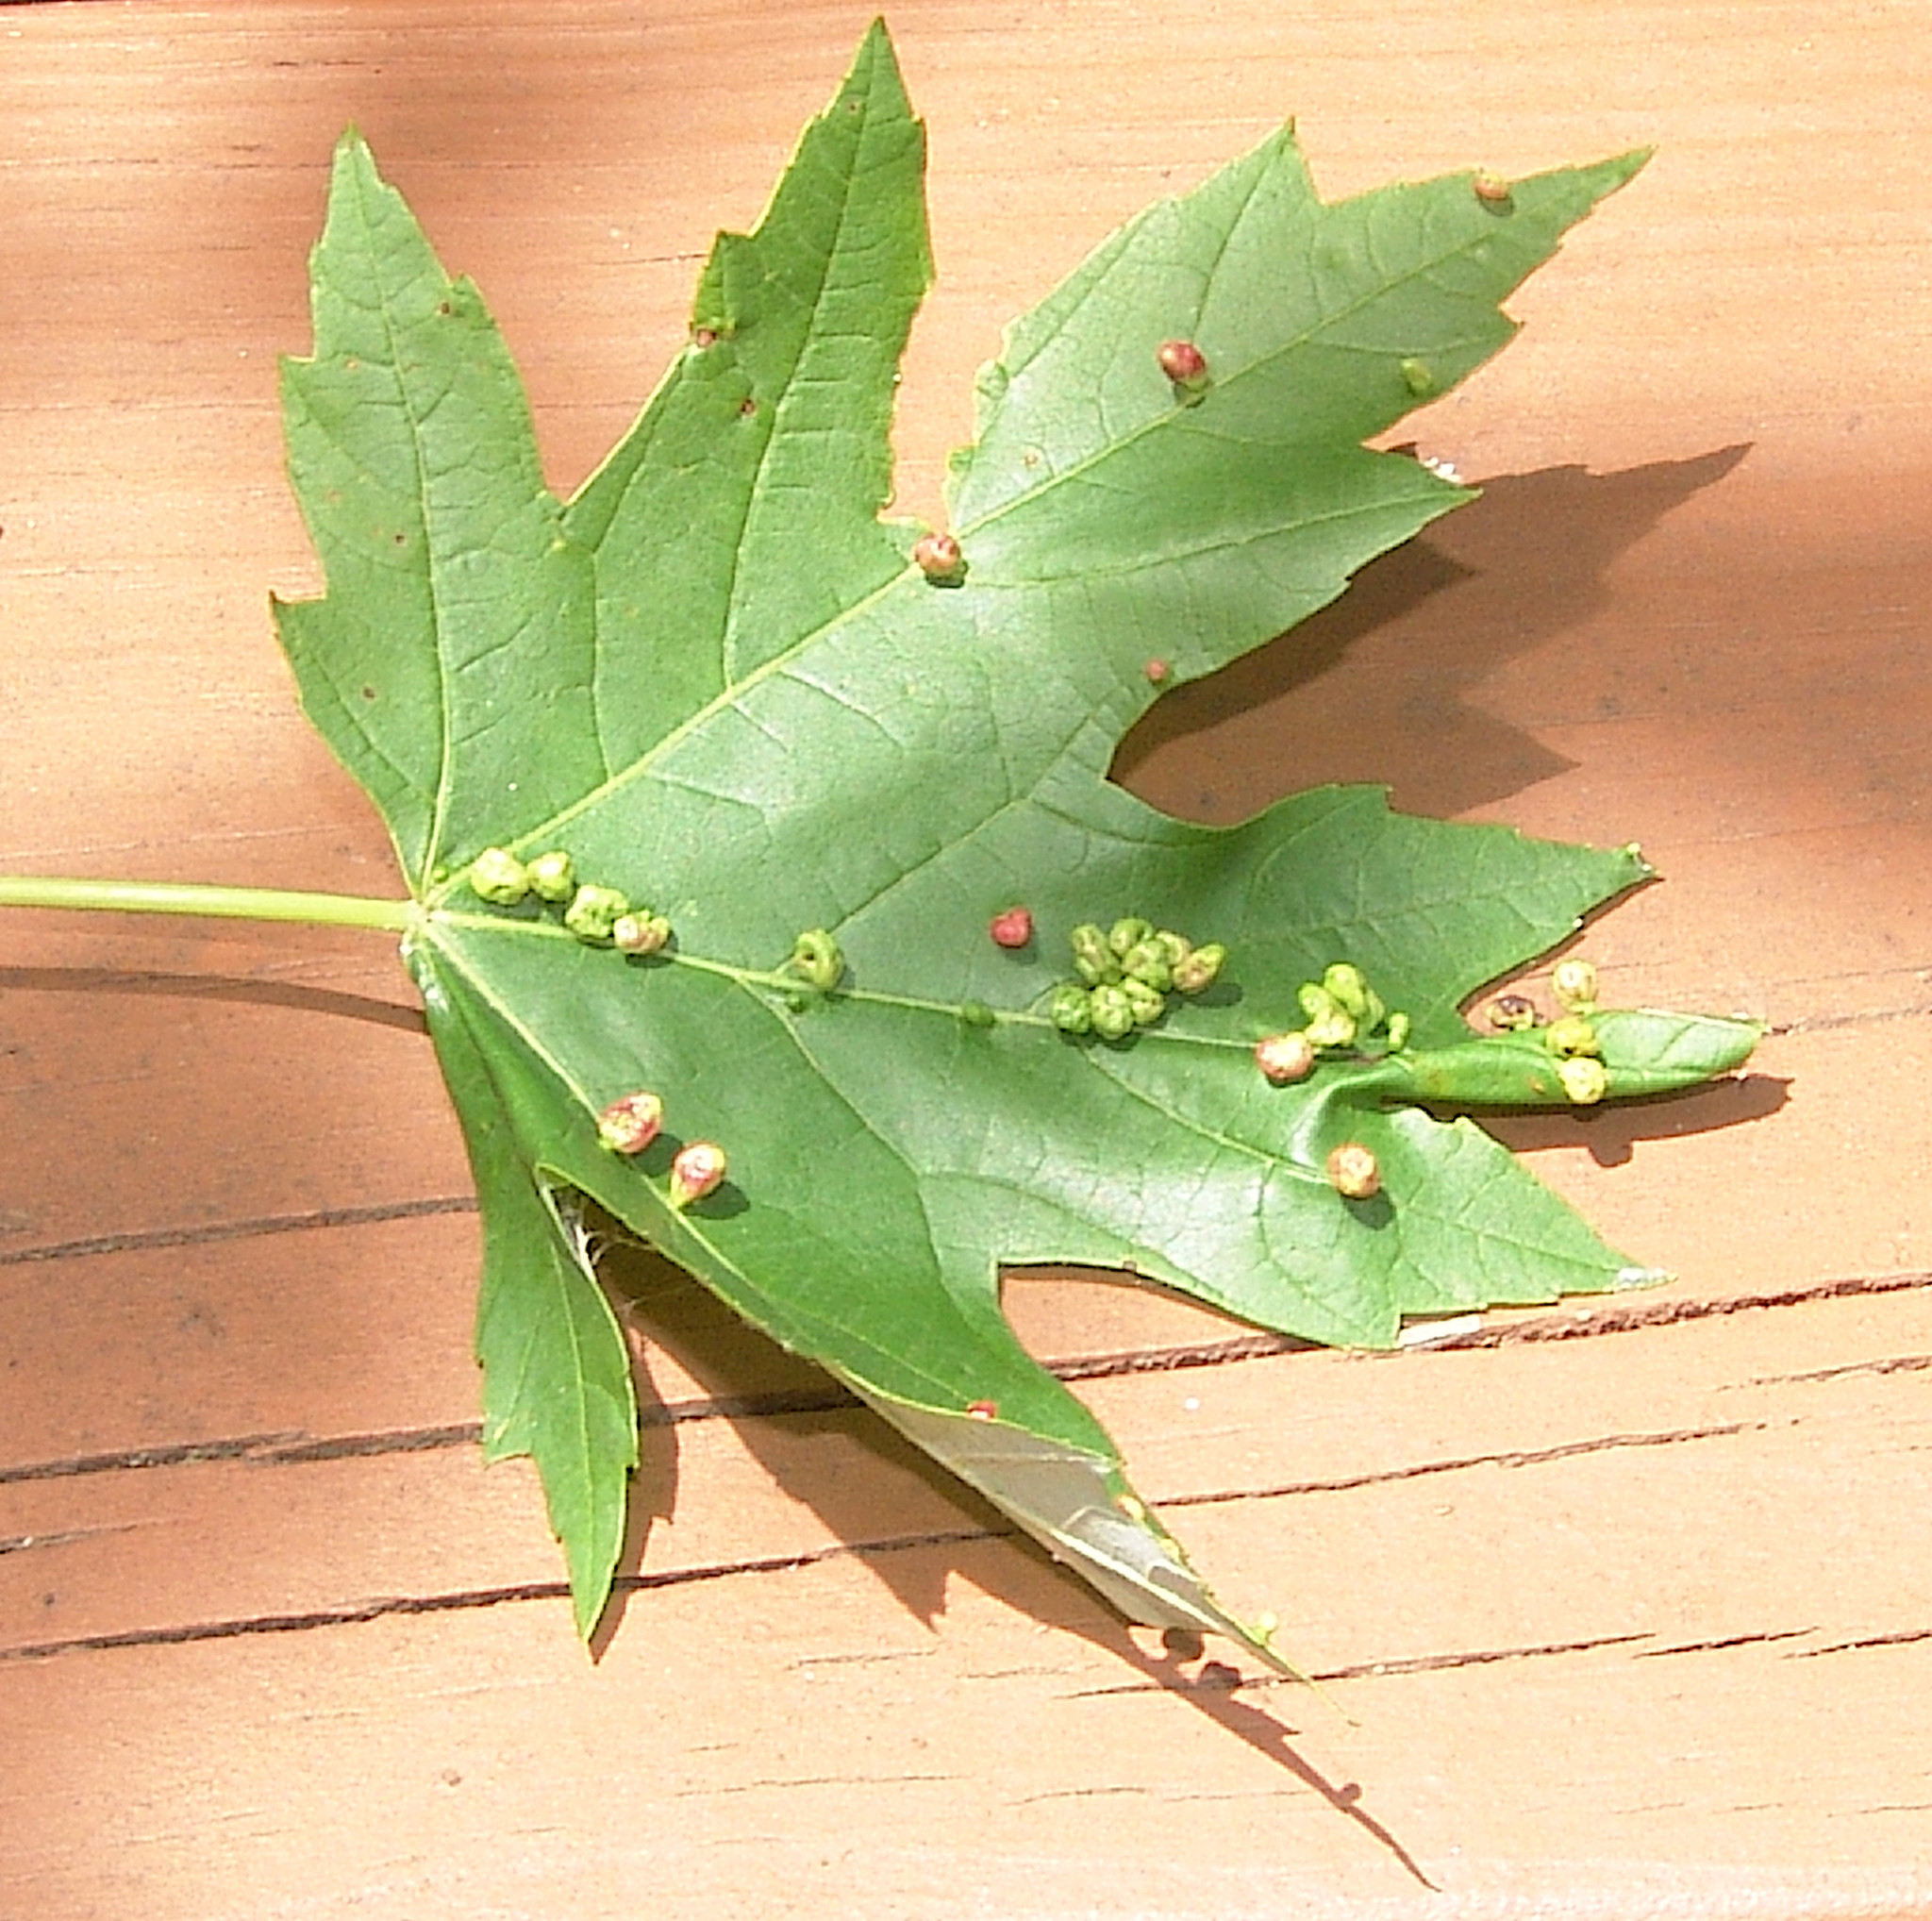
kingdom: Animalia
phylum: Arthropoda
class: Arachnida
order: Trombidiformes
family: Eriophyidae
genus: Vasates
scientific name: Vasates quadripedes
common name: Maple bladder gall mite
